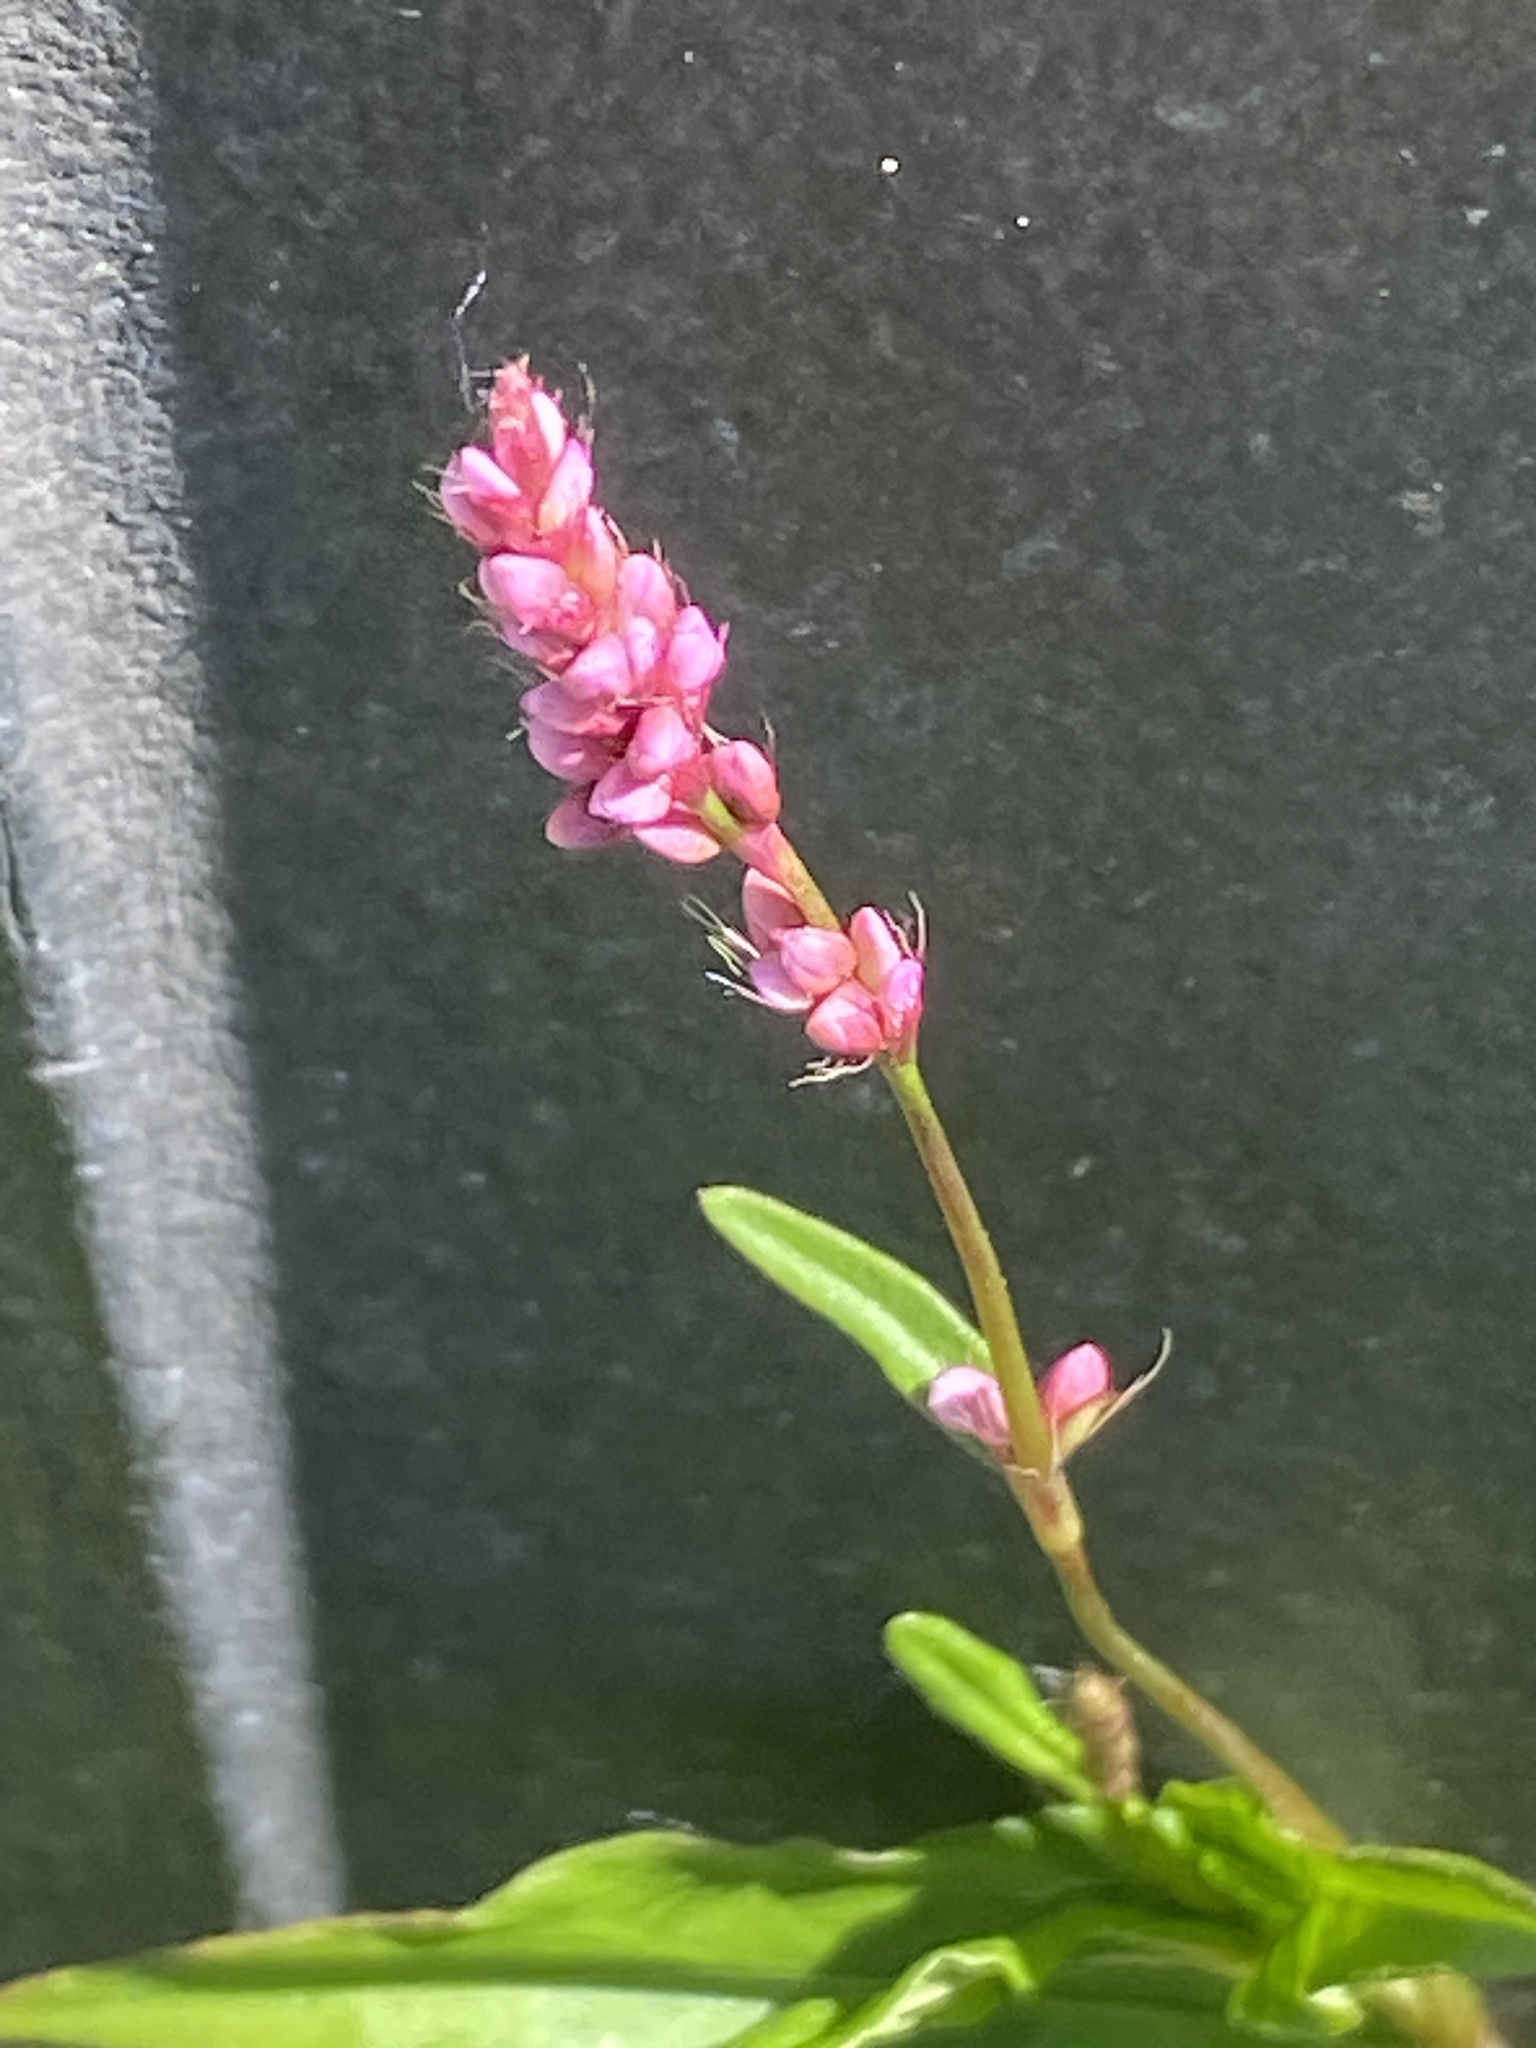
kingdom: Plantae
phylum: Tracheophyta
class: Magnoliopsida
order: Caryophyllales
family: Polygonaceae
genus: Persicaria
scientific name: Persicaria longiseta
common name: Bristly lady's-thumb
